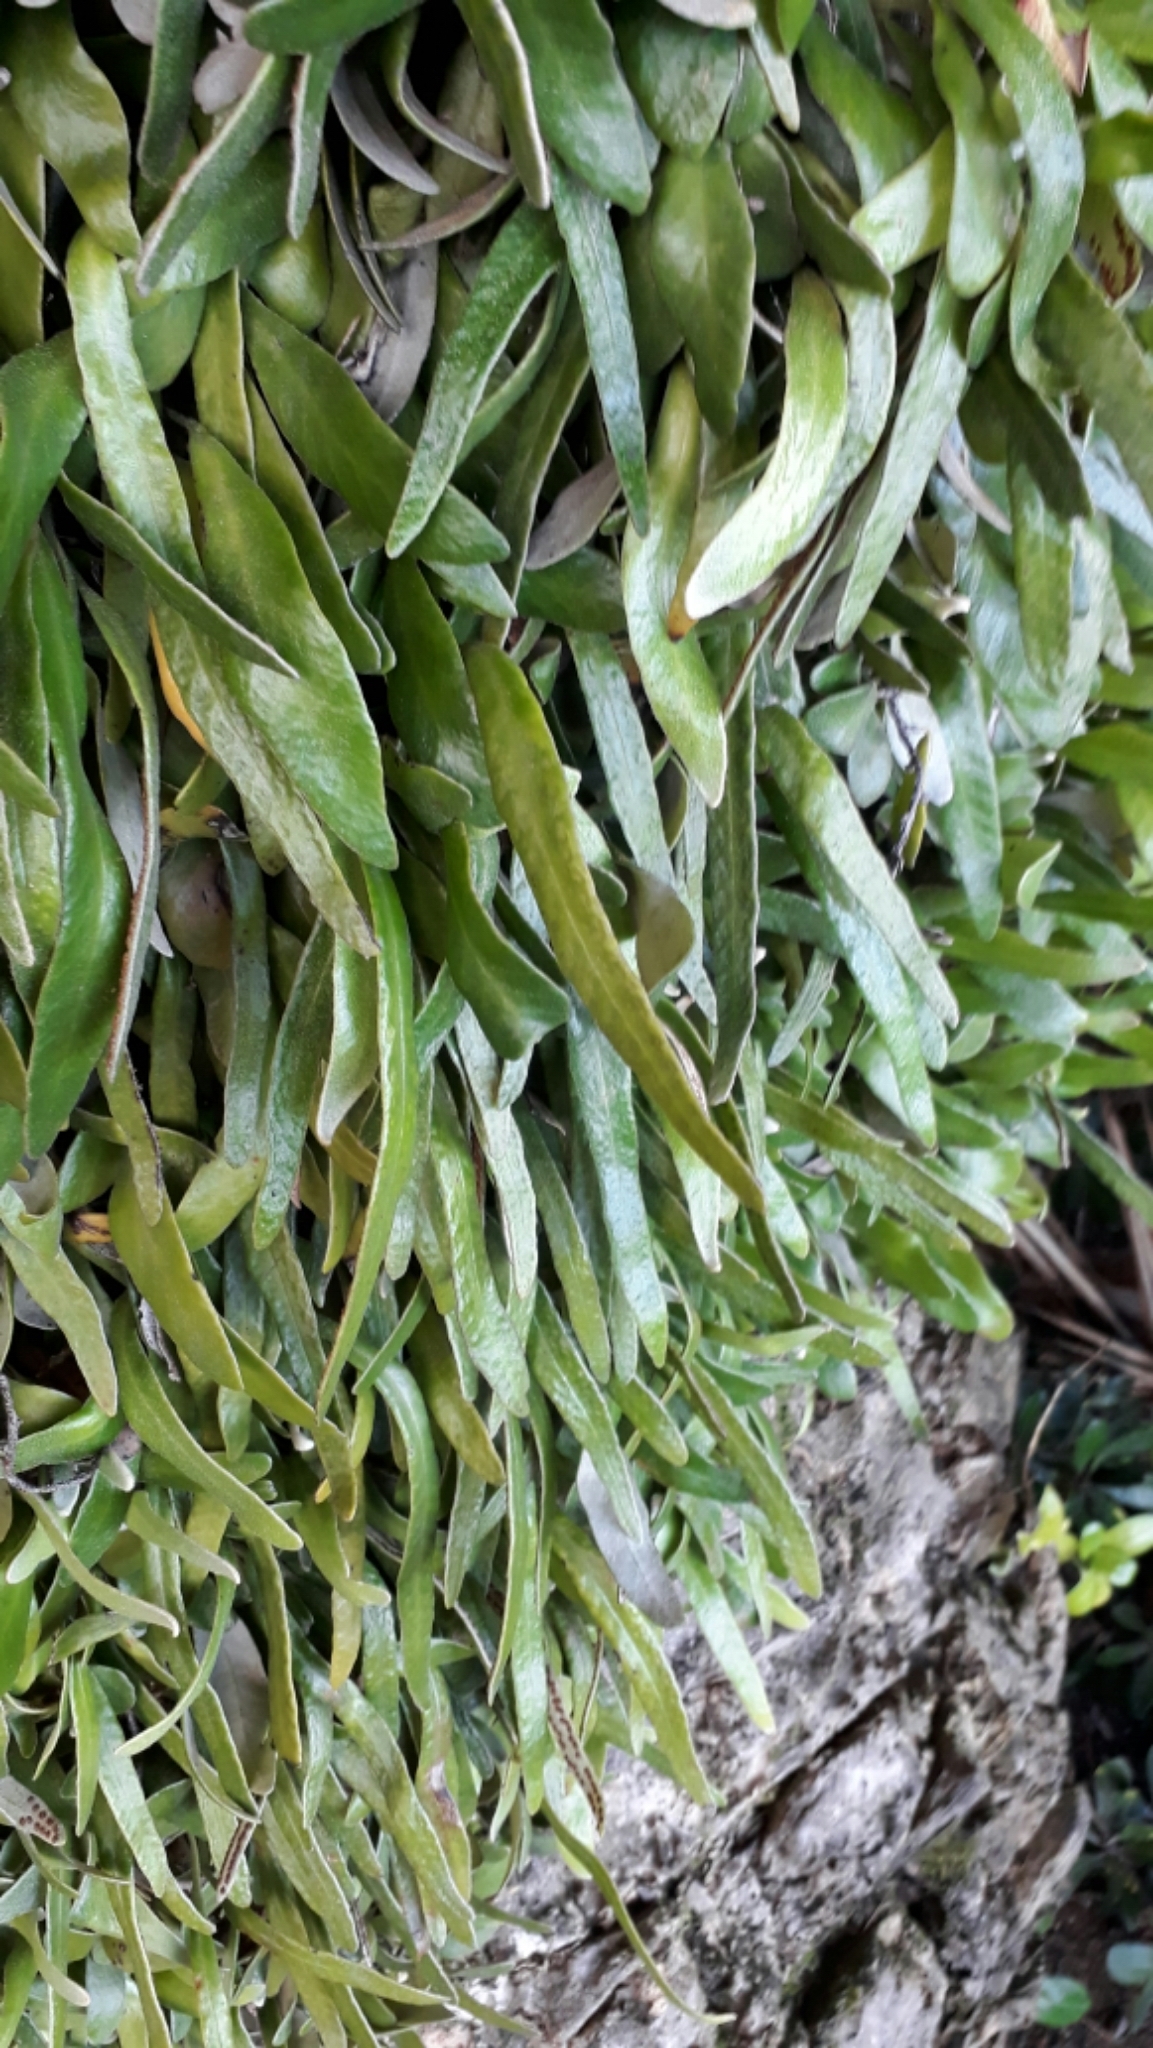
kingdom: Plantae
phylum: Tracheophyta
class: Polypodiopsida
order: Polypodiales
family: Polypodiaceae
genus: Pyrrosia
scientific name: Pyrrosia eleagnifolia
